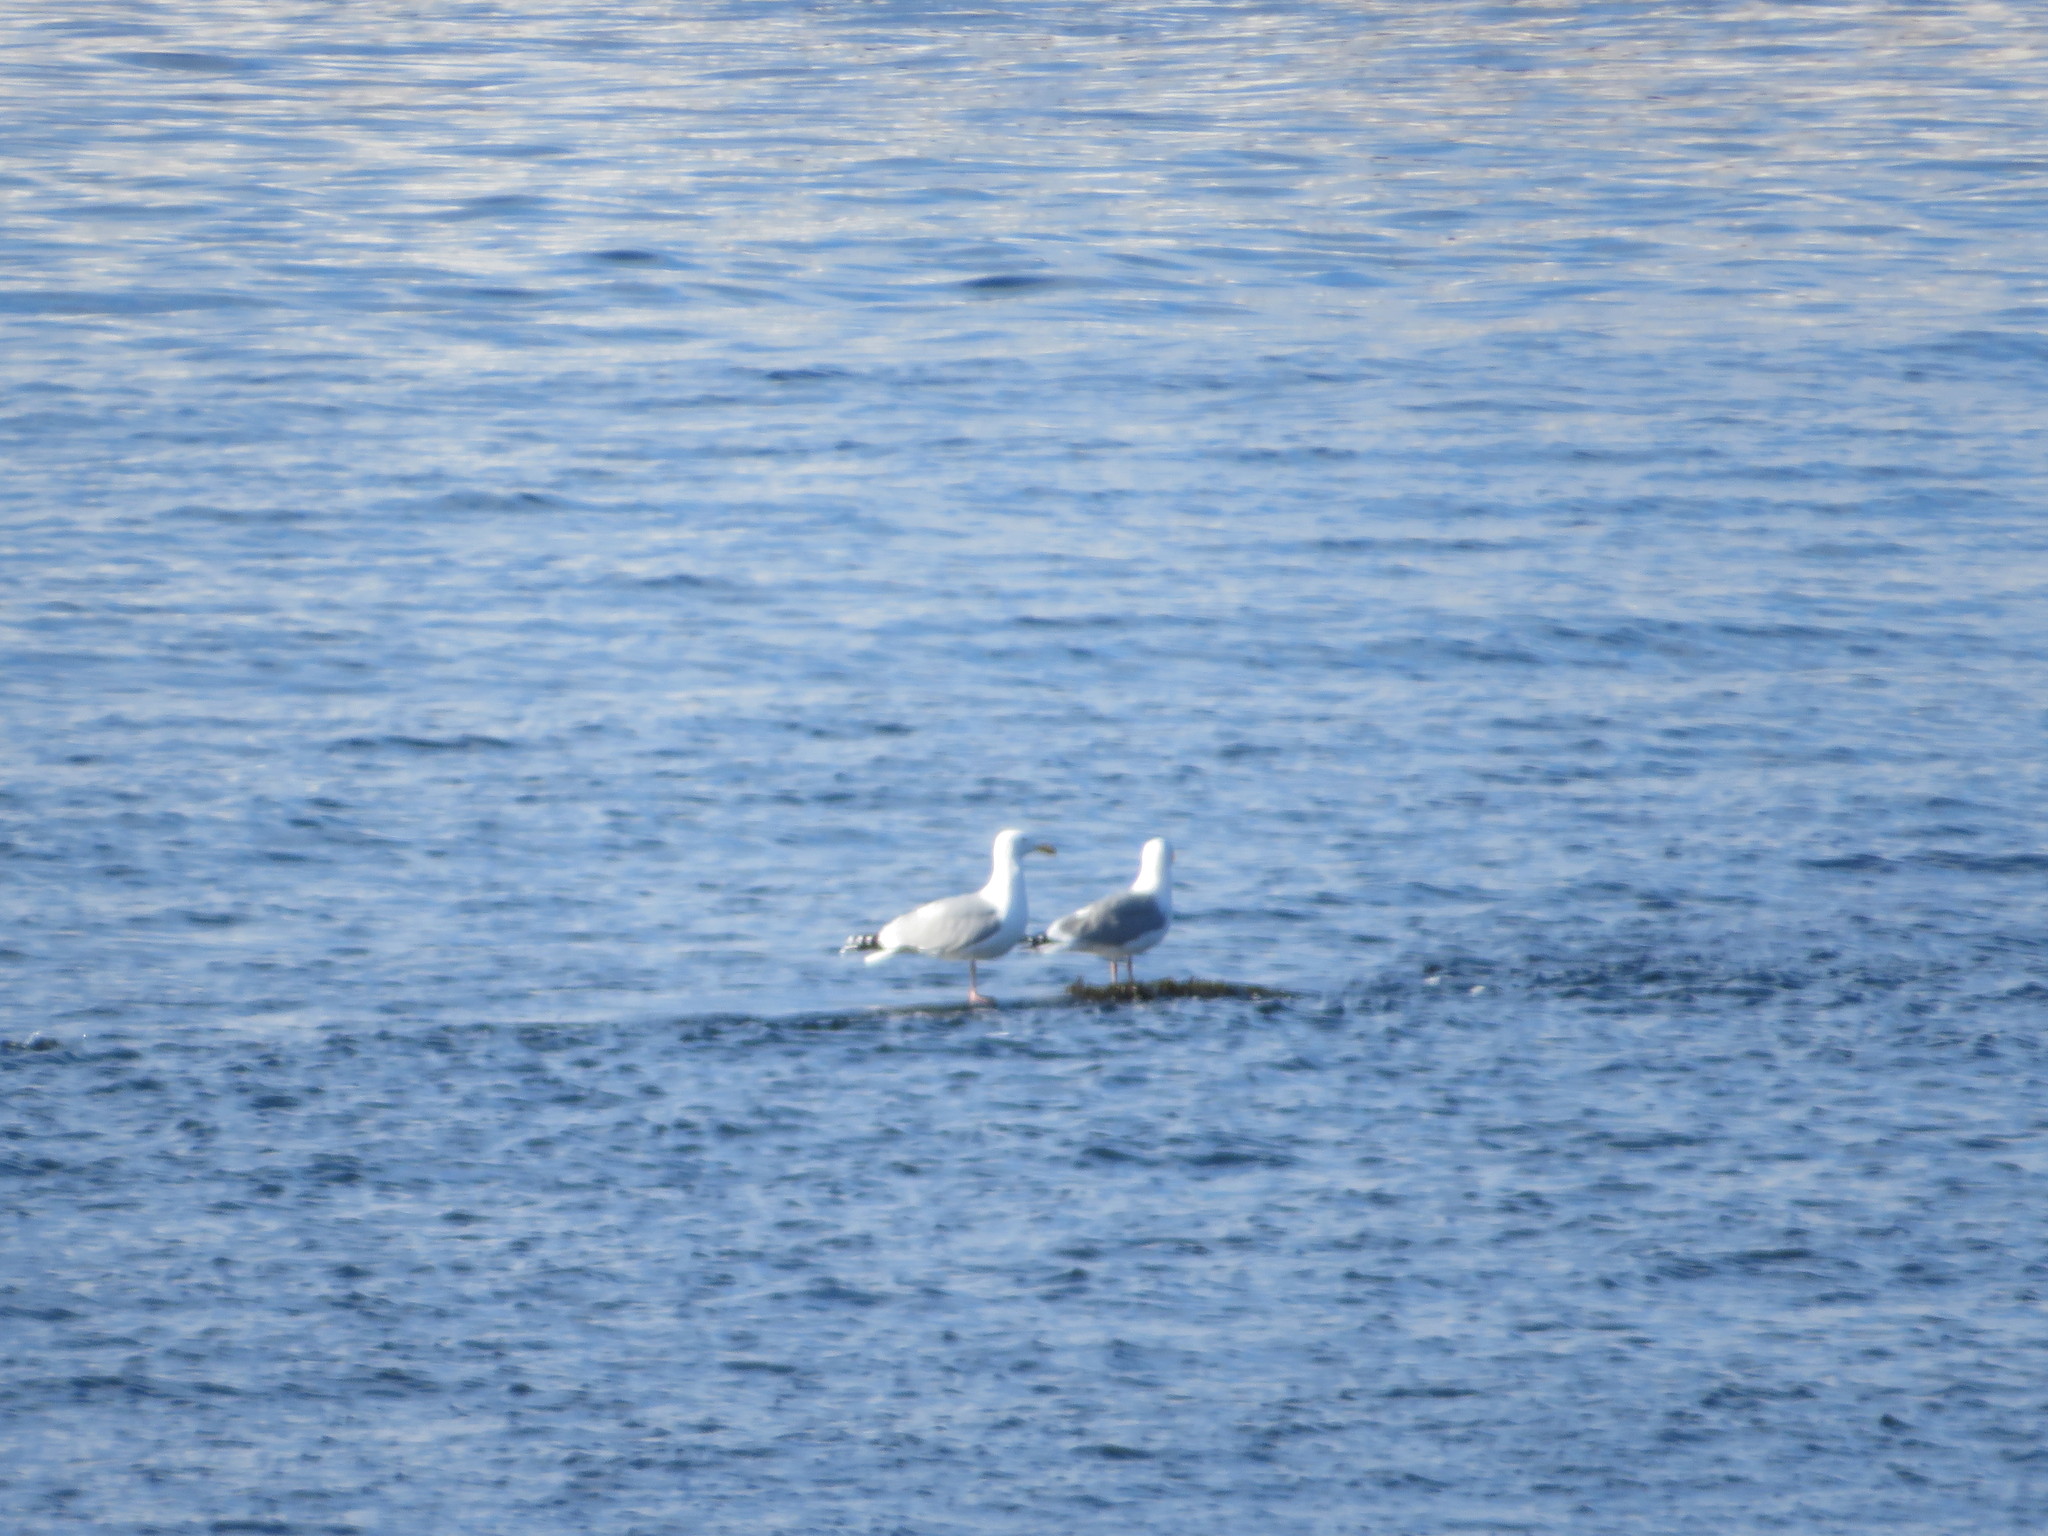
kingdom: Animalia
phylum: Chordata
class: Aves
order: Charadriiformes
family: Laridae
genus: Larus
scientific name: Larus argentatus
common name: Herring gull
